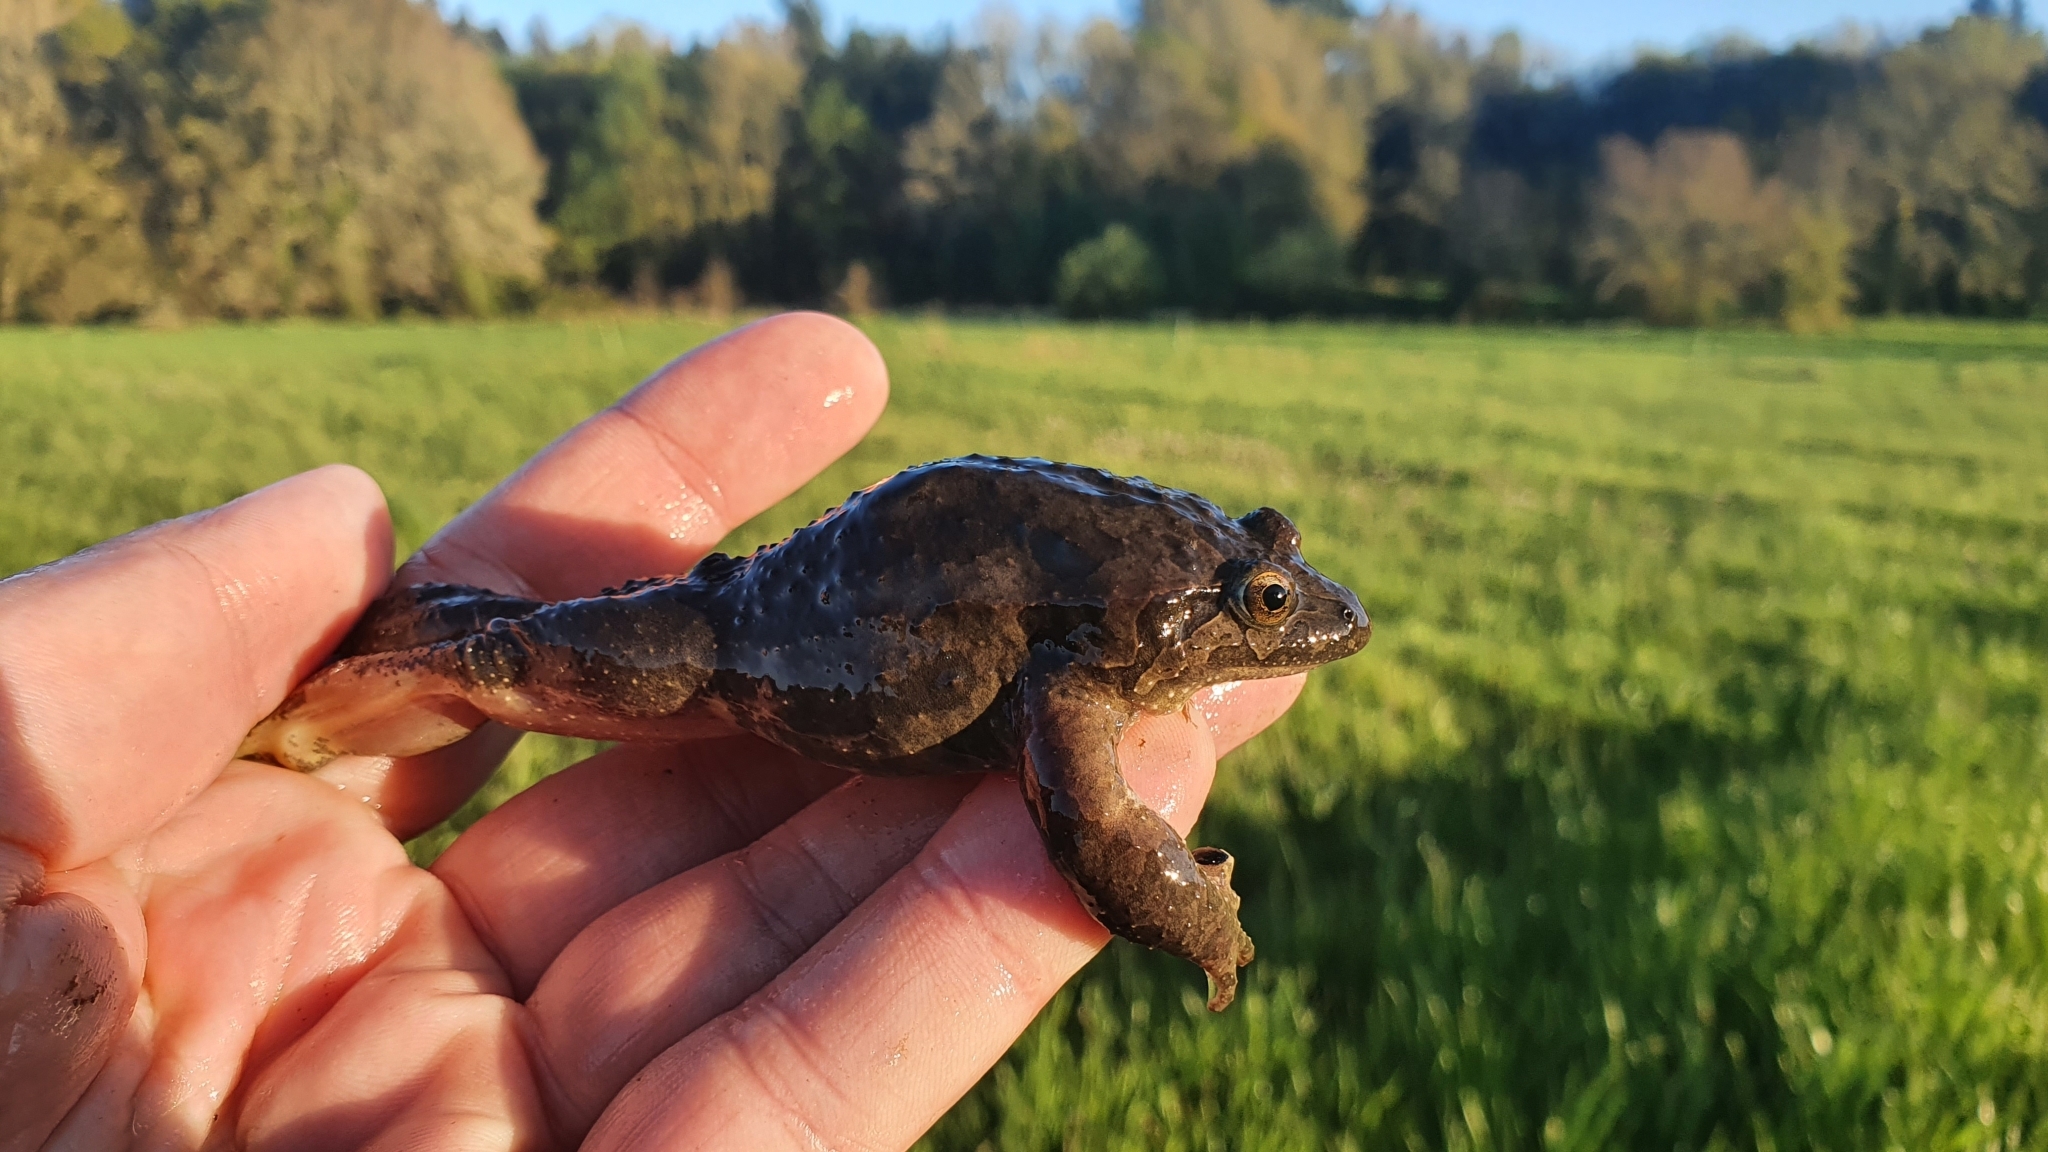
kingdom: Animalia
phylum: Chordata
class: Amphibia
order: Anura
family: Alytidae
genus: Discoglossus
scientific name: Discoglossus galganoi
